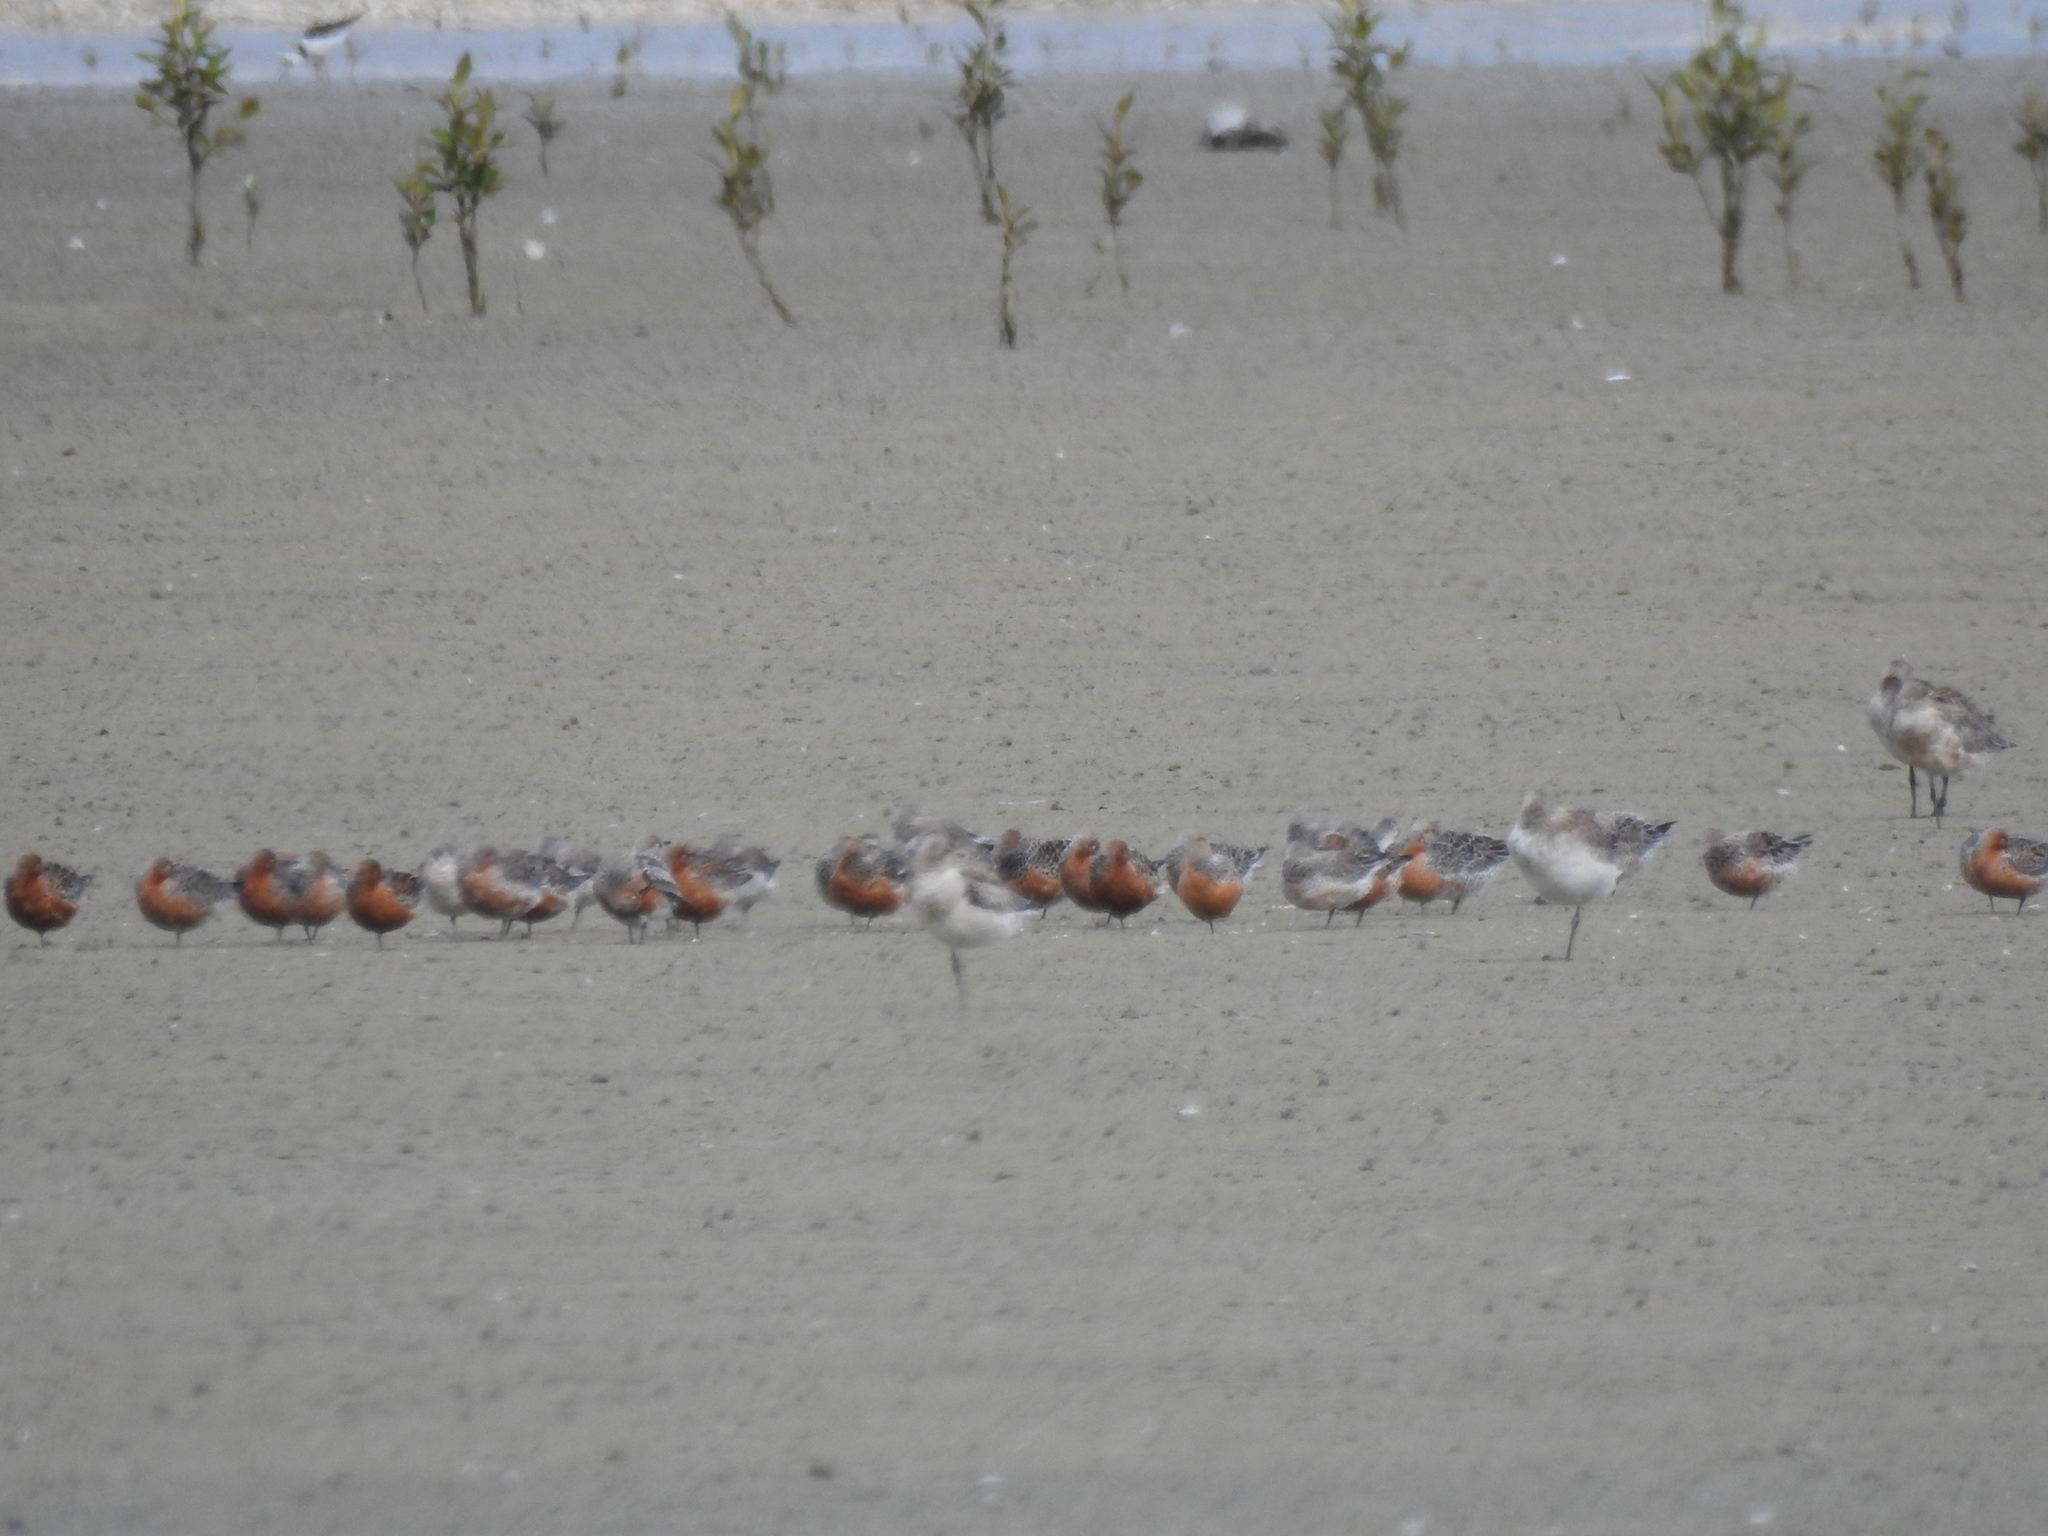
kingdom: Animalia
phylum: Chordata
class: Aves
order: Charadriiformes
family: Scolopacidae
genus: Calidris
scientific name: Calidris canutus
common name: Red knot
